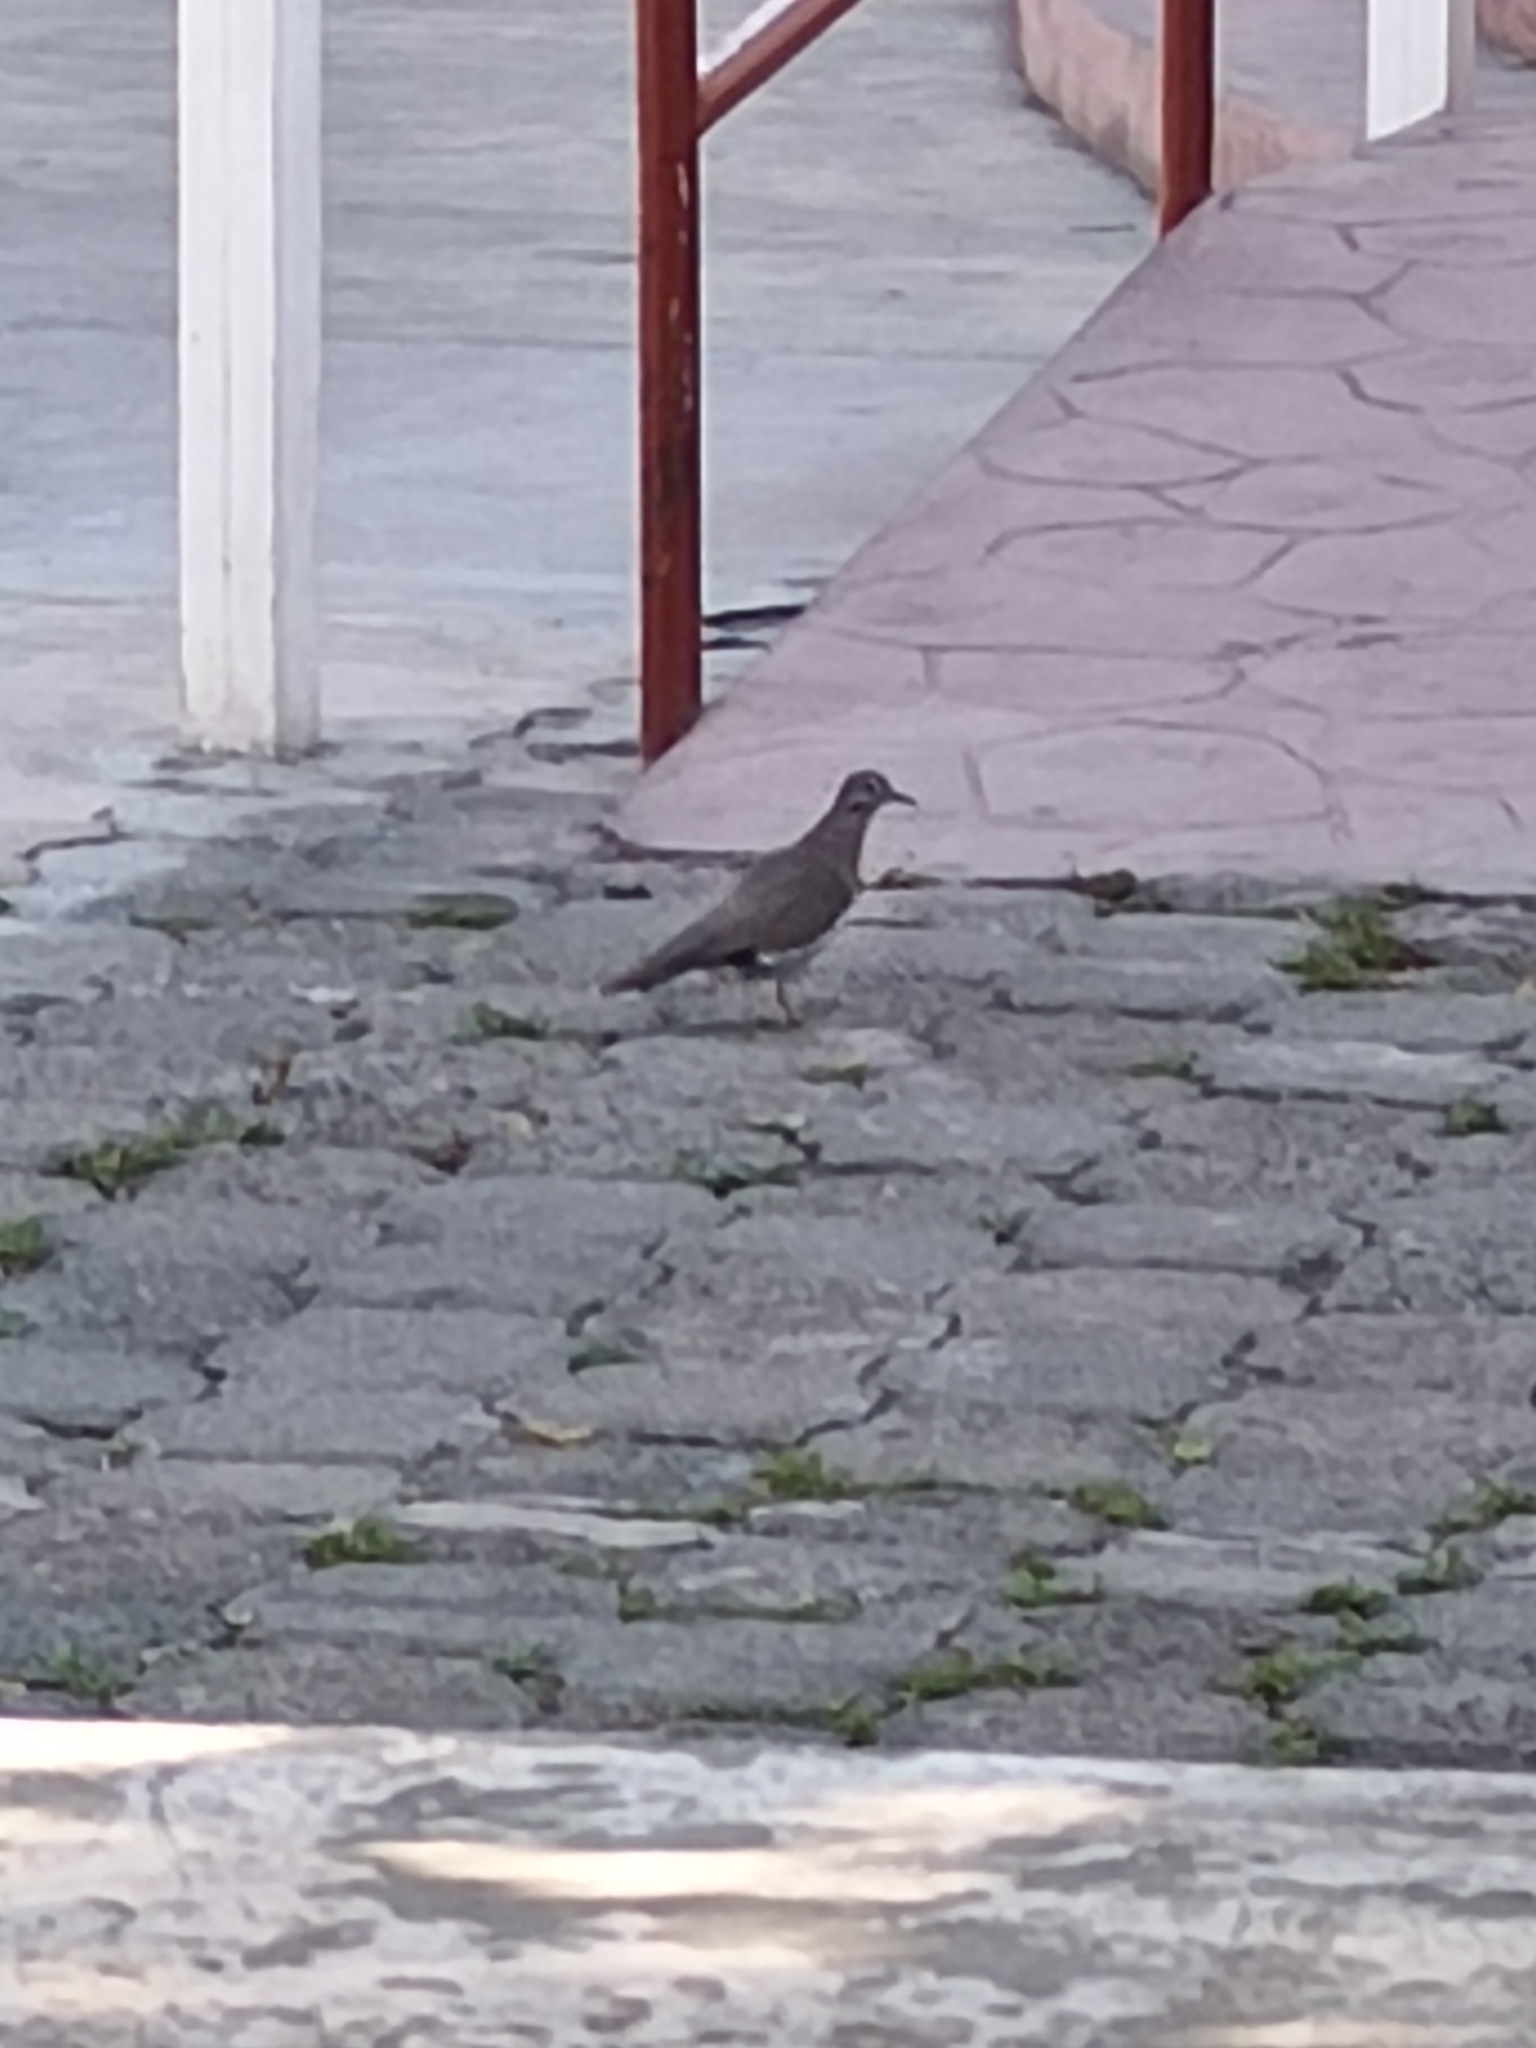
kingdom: Animalia
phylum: Chordata
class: Aves
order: Columbiformes
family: Columbidae
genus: Zenaida
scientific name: Zenaida asiatica
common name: White-winged dove
